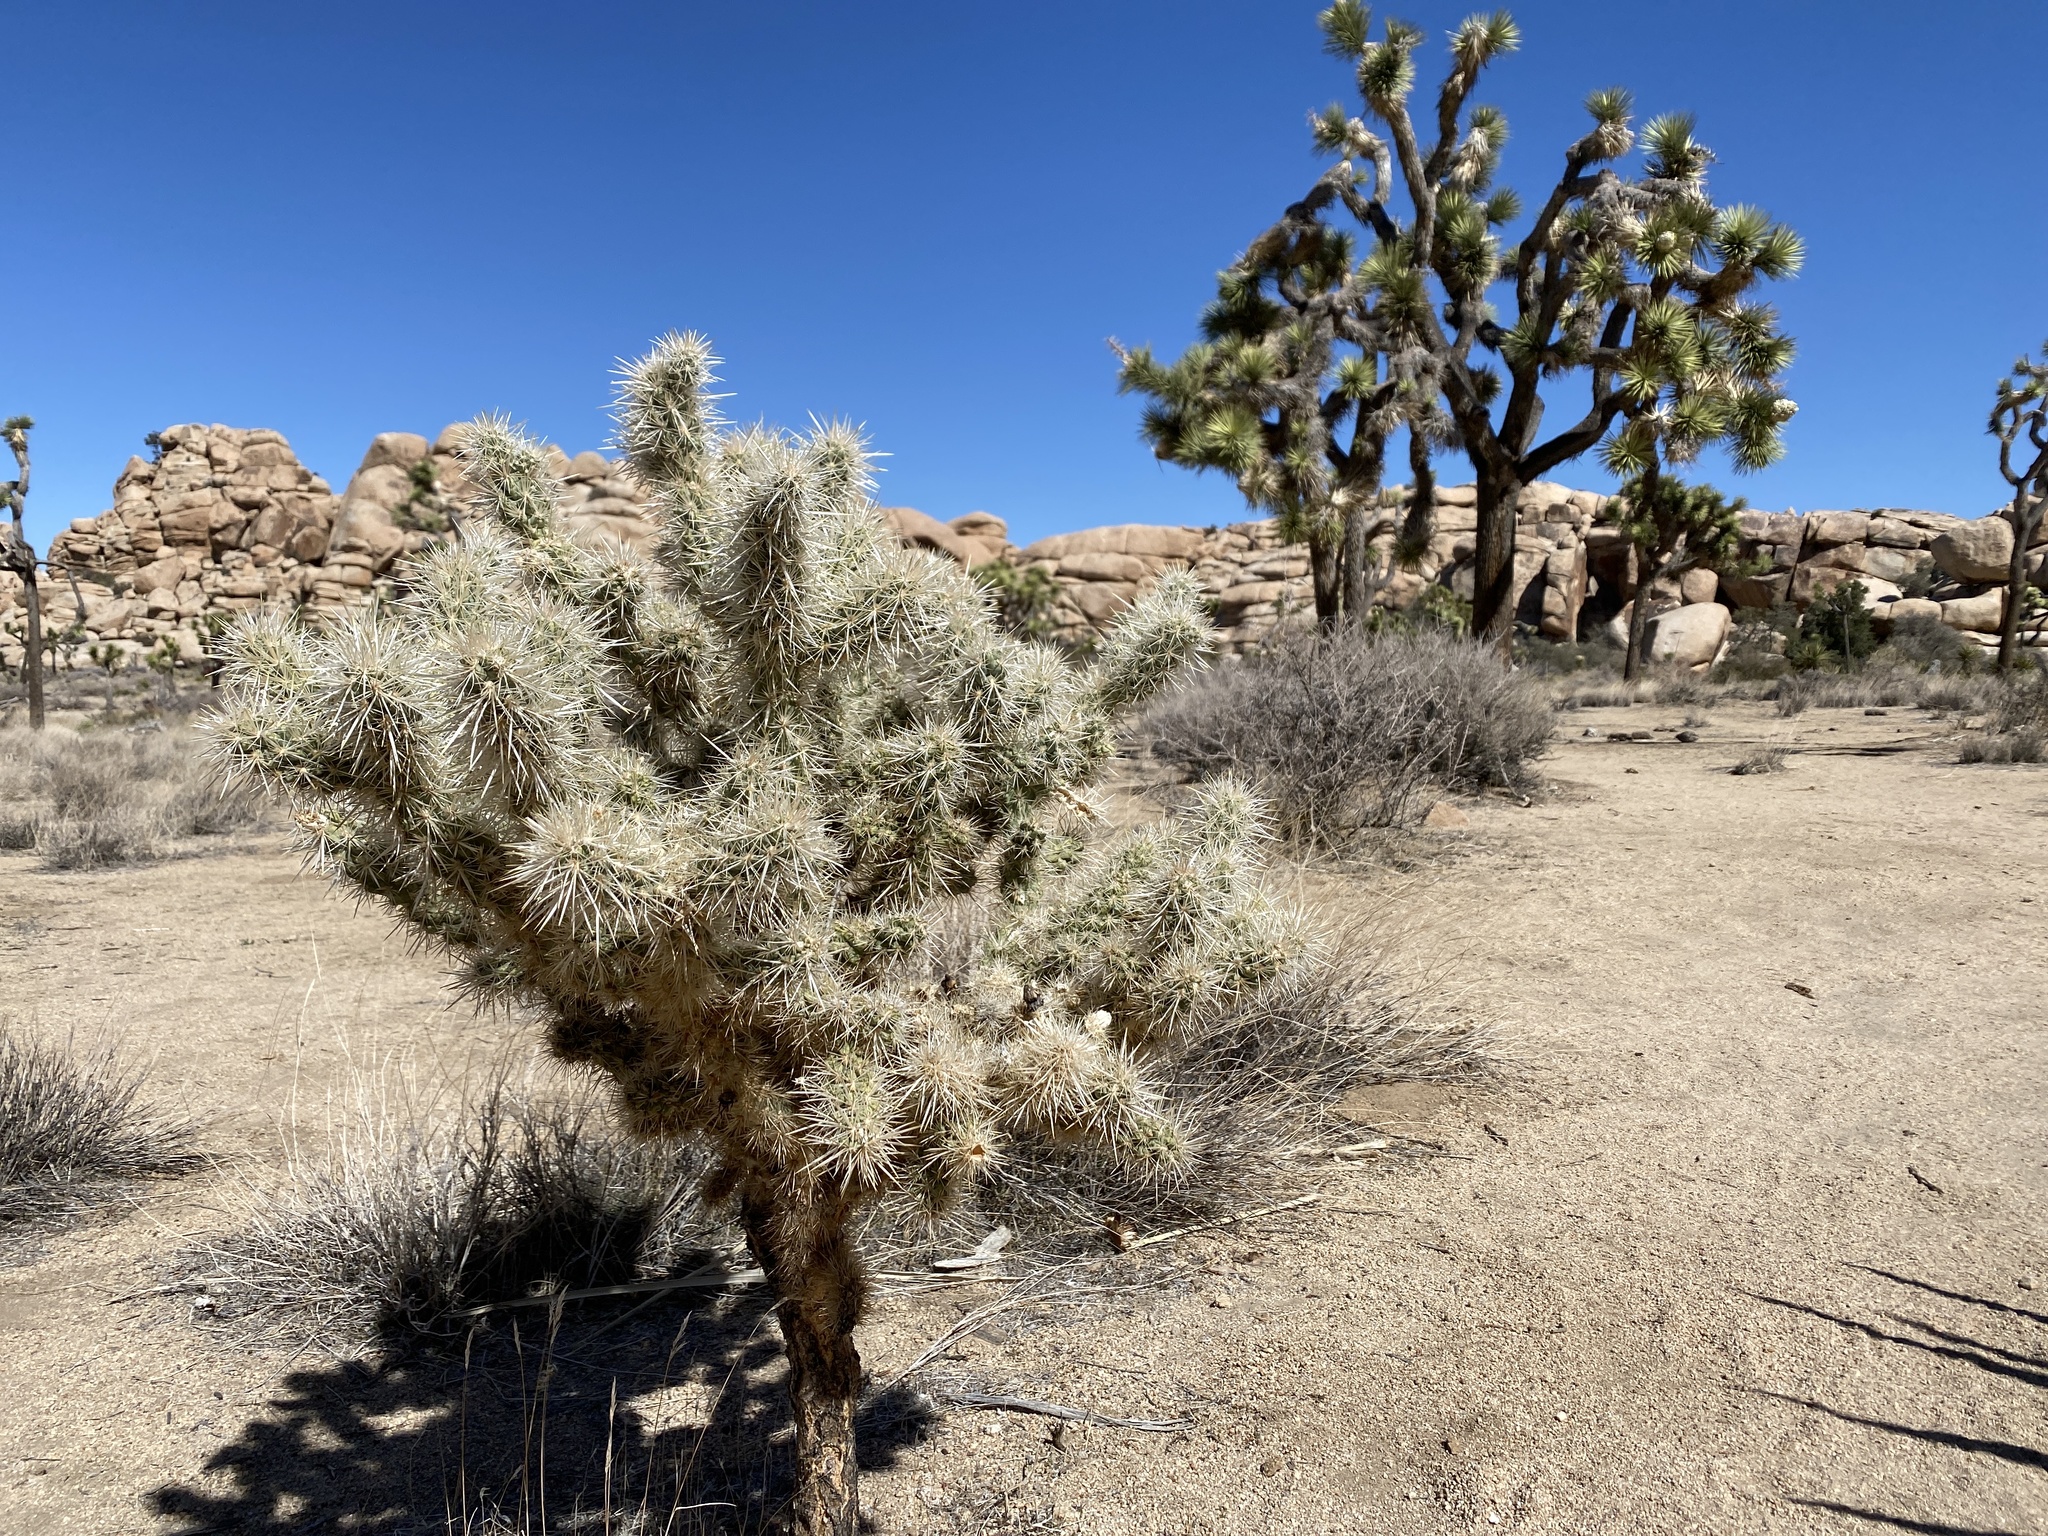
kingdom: Plantae
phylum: Tracheophyta
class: Magnoliopsida
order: Caryophyllales
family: Cactaceae
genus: Cylindropuntia
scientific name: Cylindropuntia echinocarpa
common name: Ground cholla
